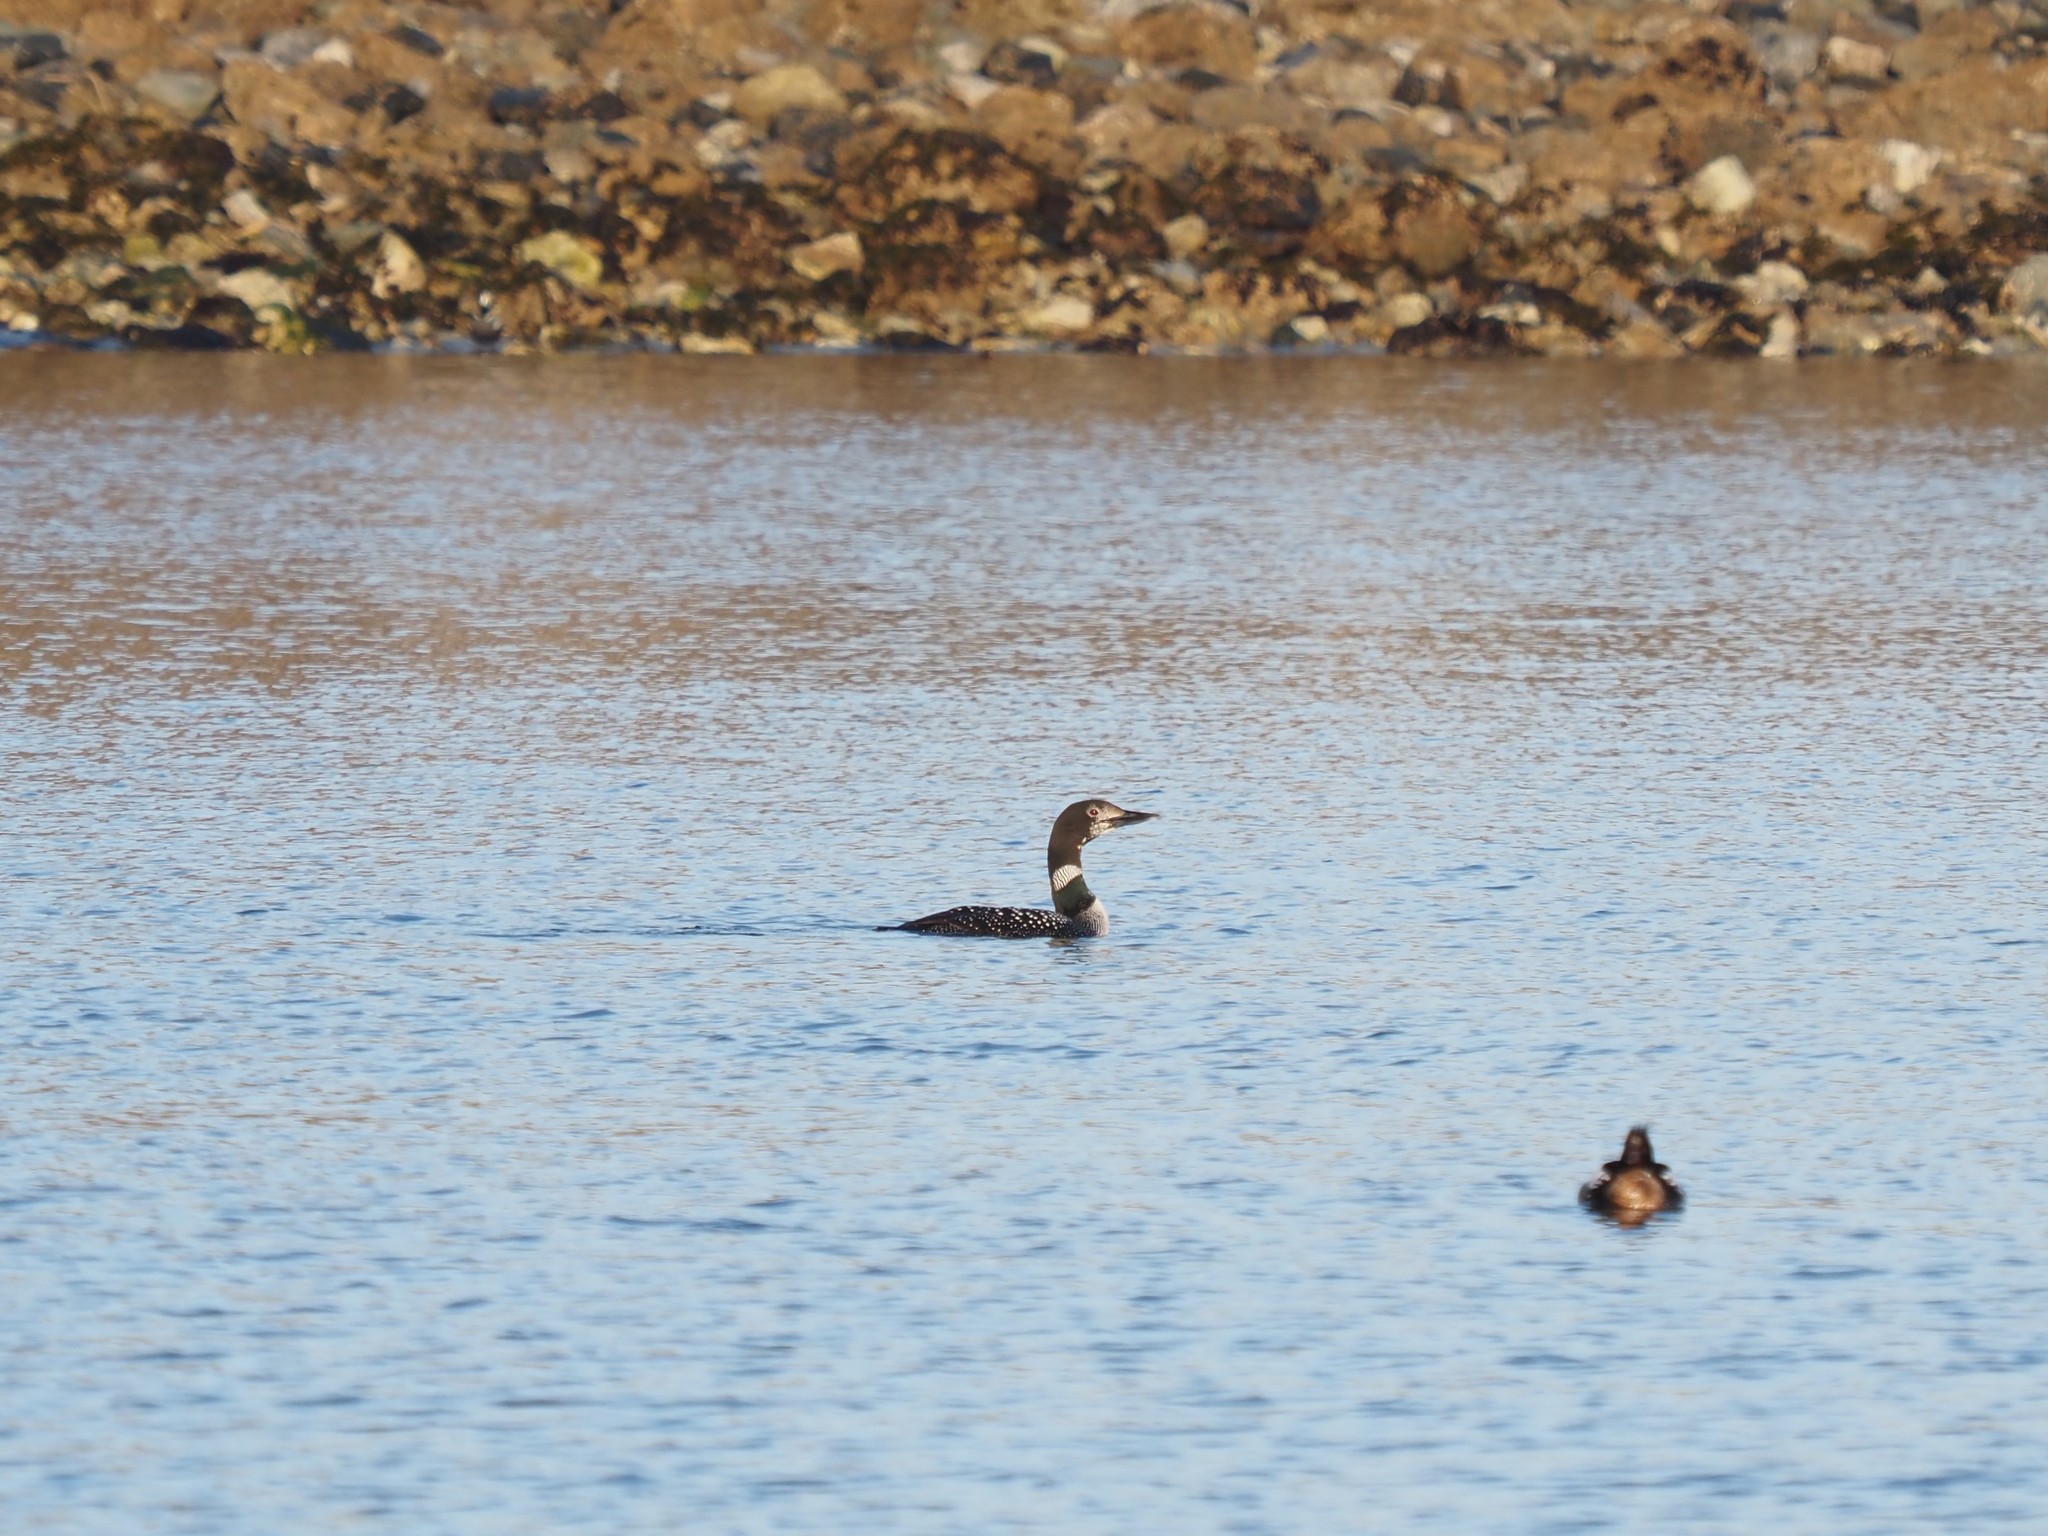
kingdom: Animalia
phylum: Chordata
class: Aves
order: Gaviiformes
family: Gaviidae
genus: Gavia
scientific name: Gavia immer
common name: Common loon
